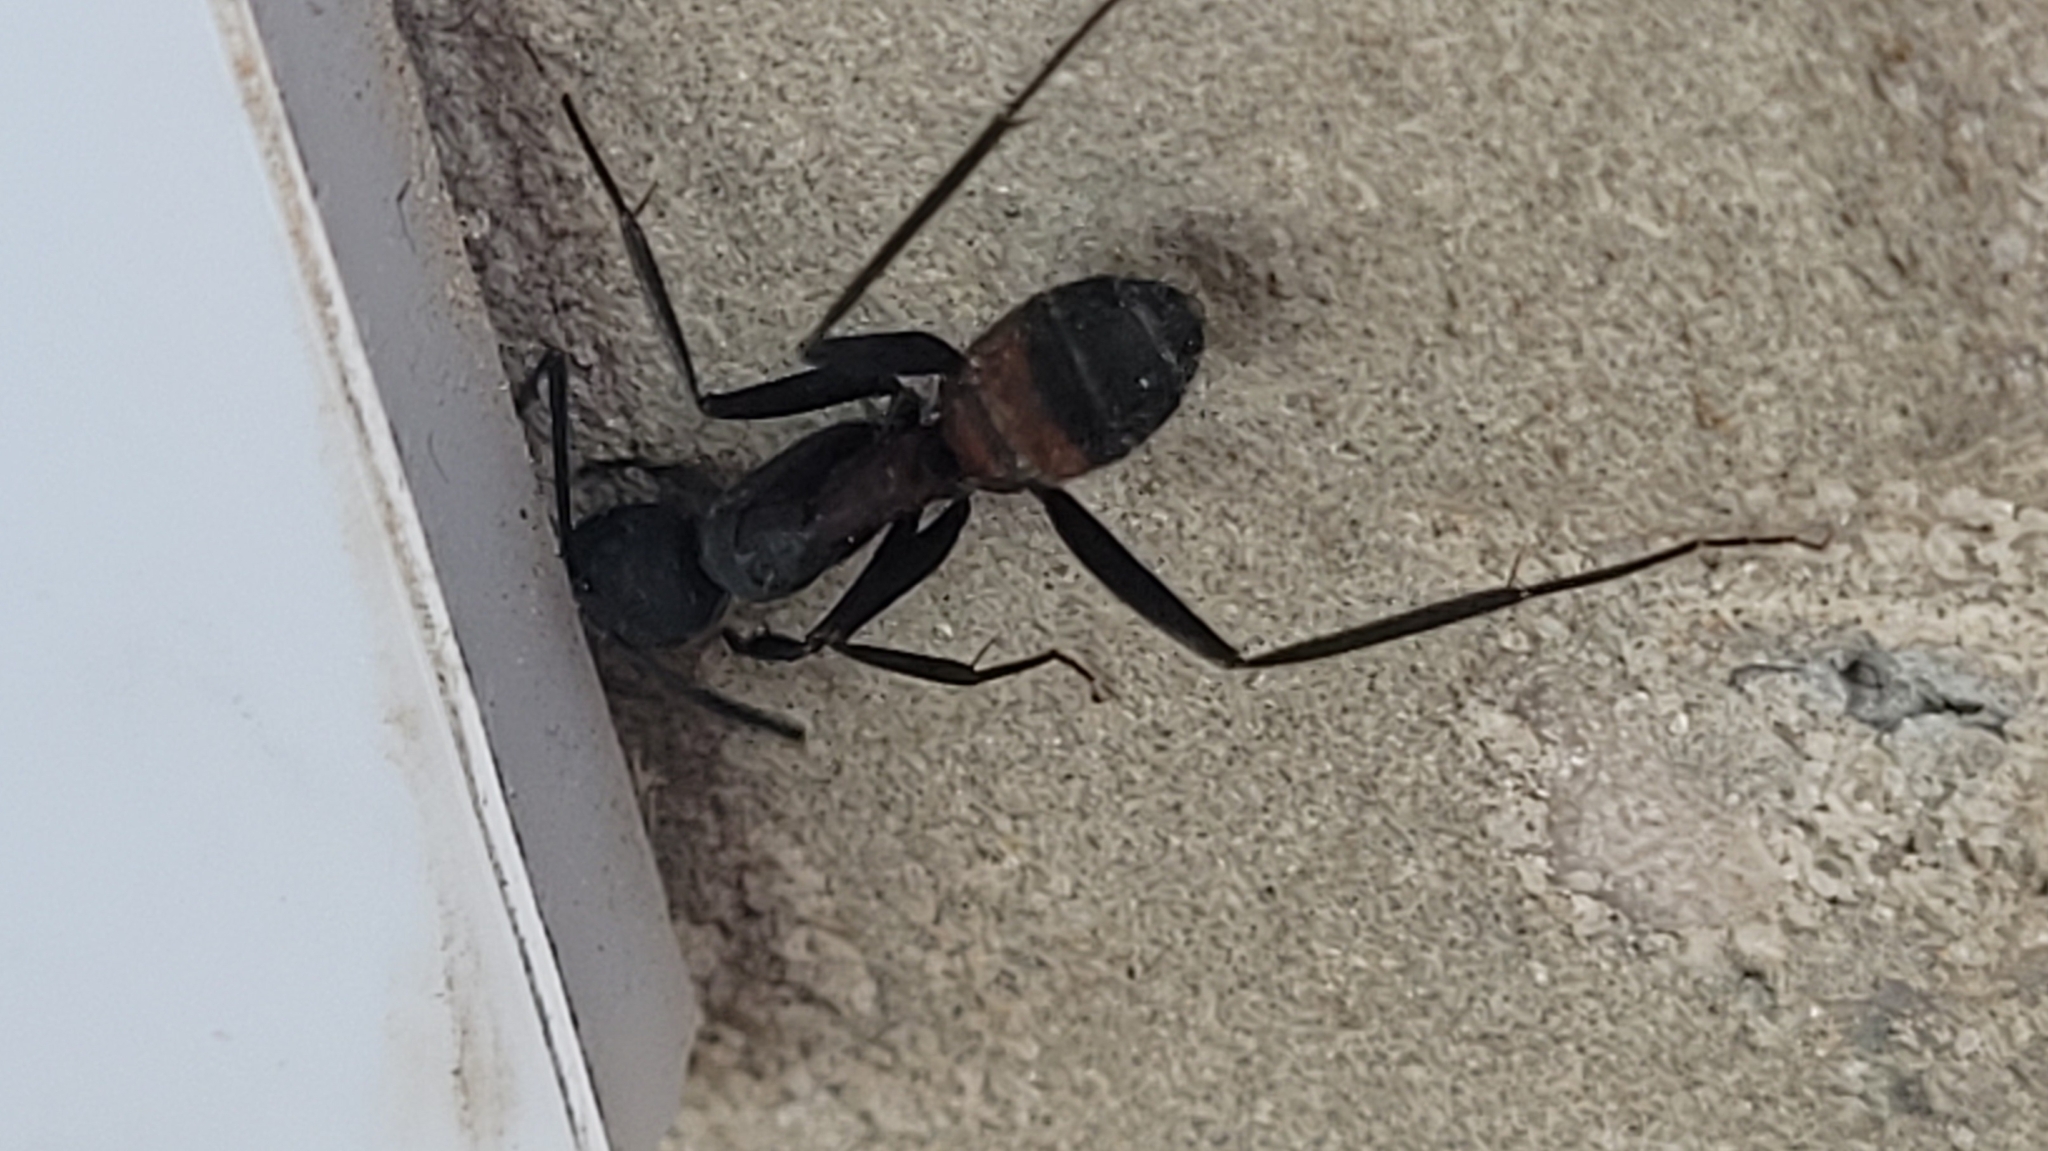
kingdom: Animalia
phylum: Arthropoda
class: Insecta
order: Hymenoptera
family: Formicidae
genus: Camponotus
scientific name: Camponotus cruentatus
